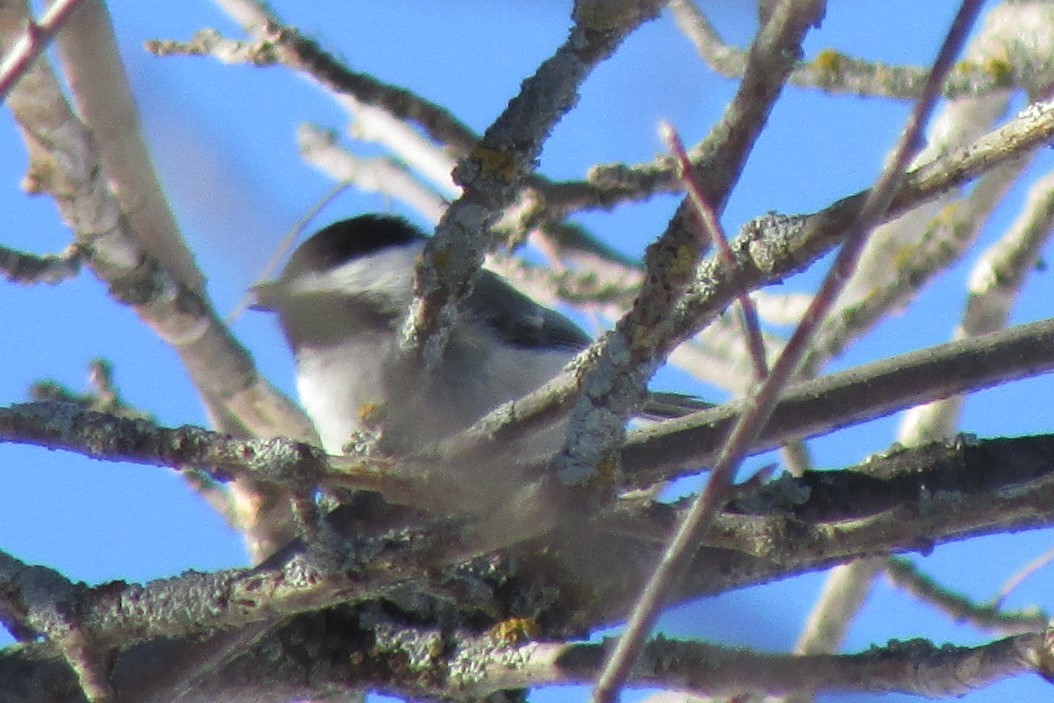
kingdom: Animalia
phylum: Chordata
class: Aves
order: Passeriformes
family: Paridae
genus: Poecile
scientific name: Poecile atricapillus
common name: Black-capped chickadee
